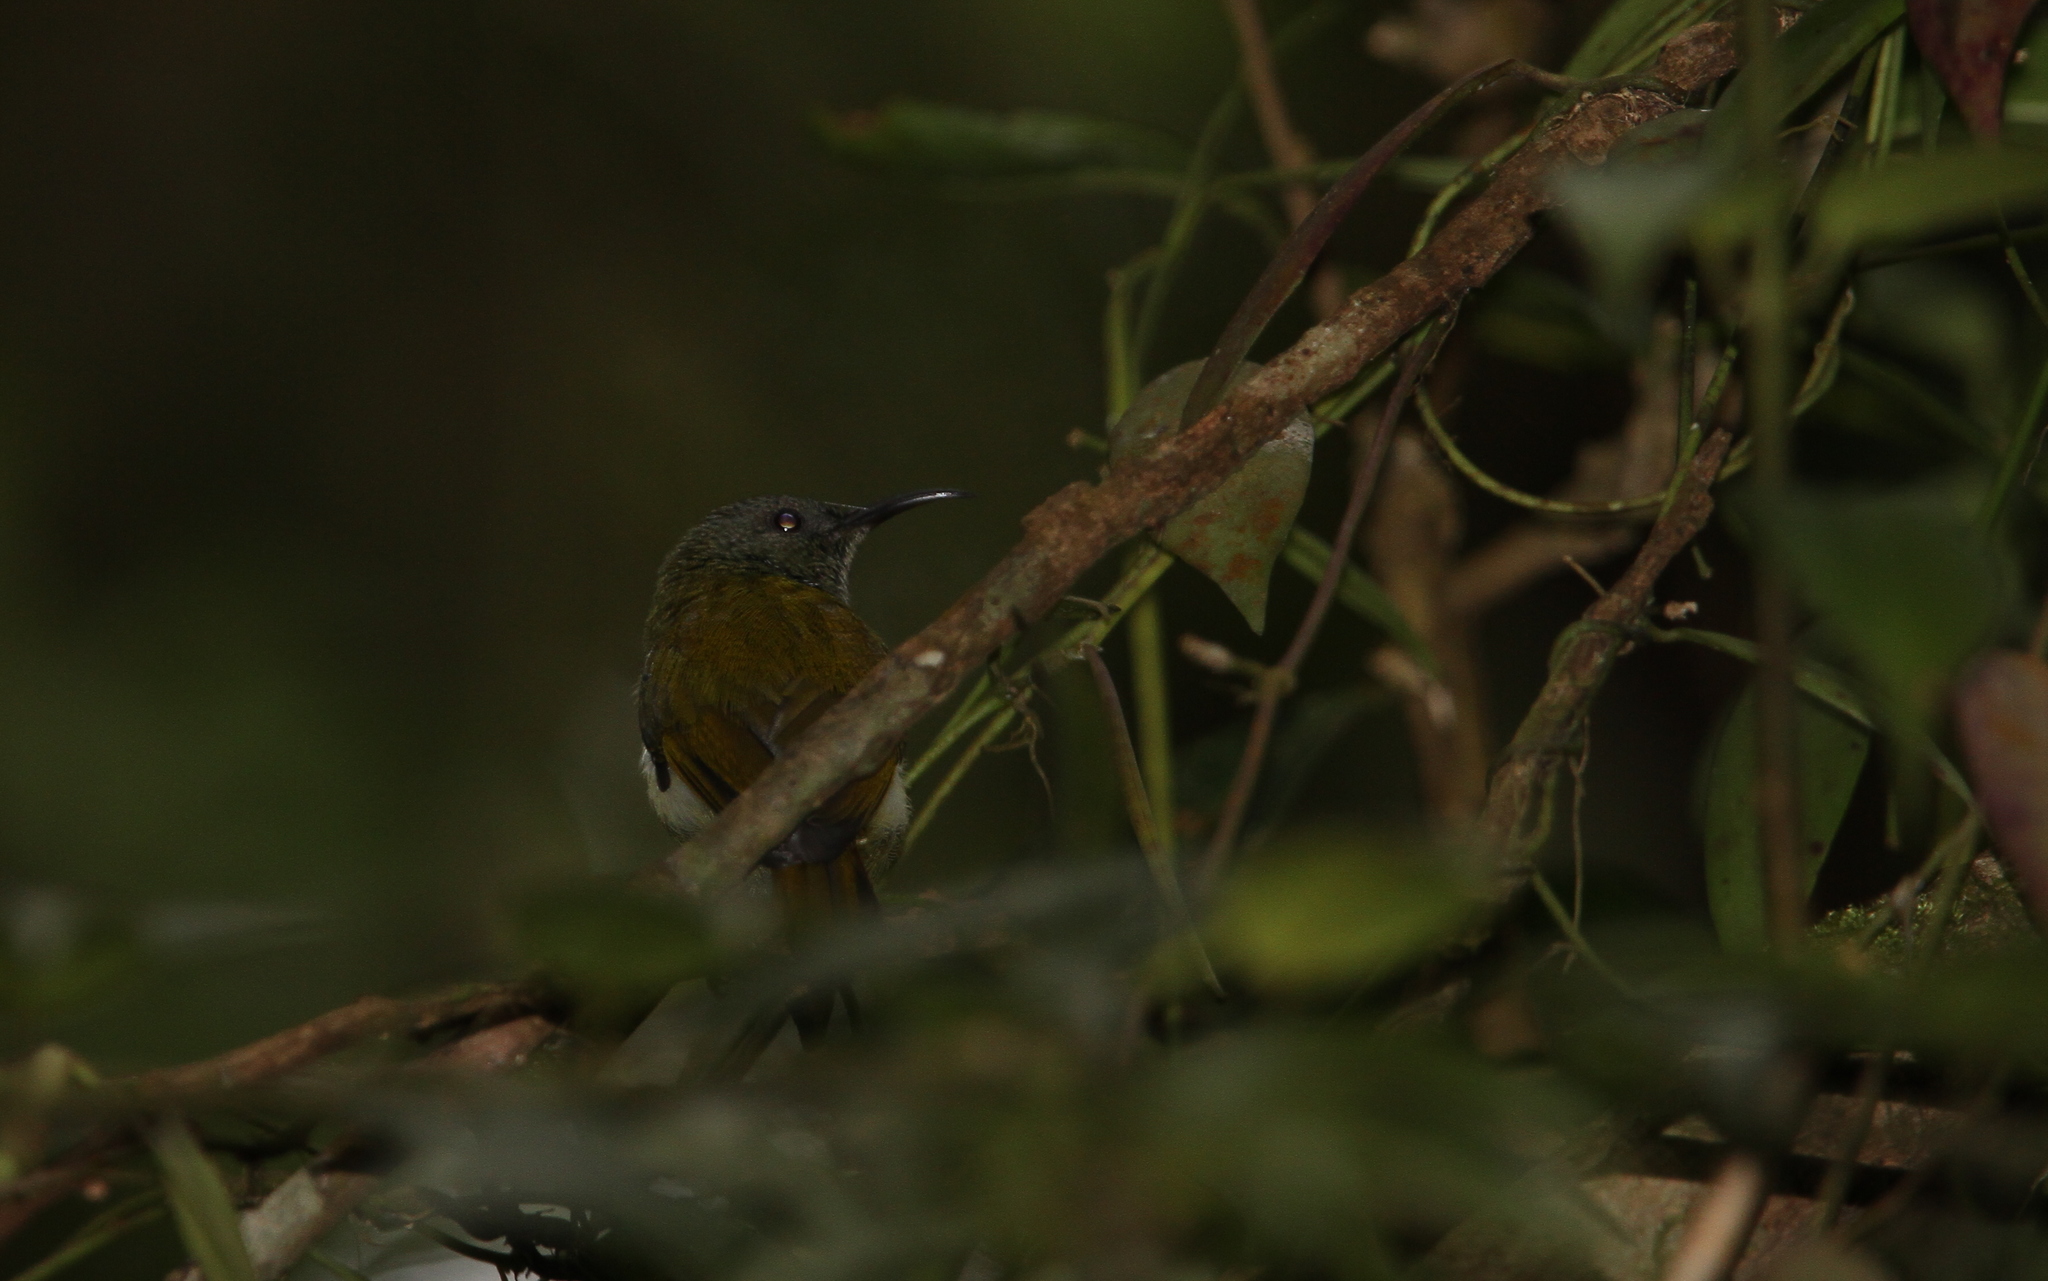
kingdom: Animalia
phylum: Chordata
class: Aves
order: Passeriformes
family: Nectariniidae
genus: Aethopyga
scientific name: Aethopyga eximia
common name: White-flanked sunbird
